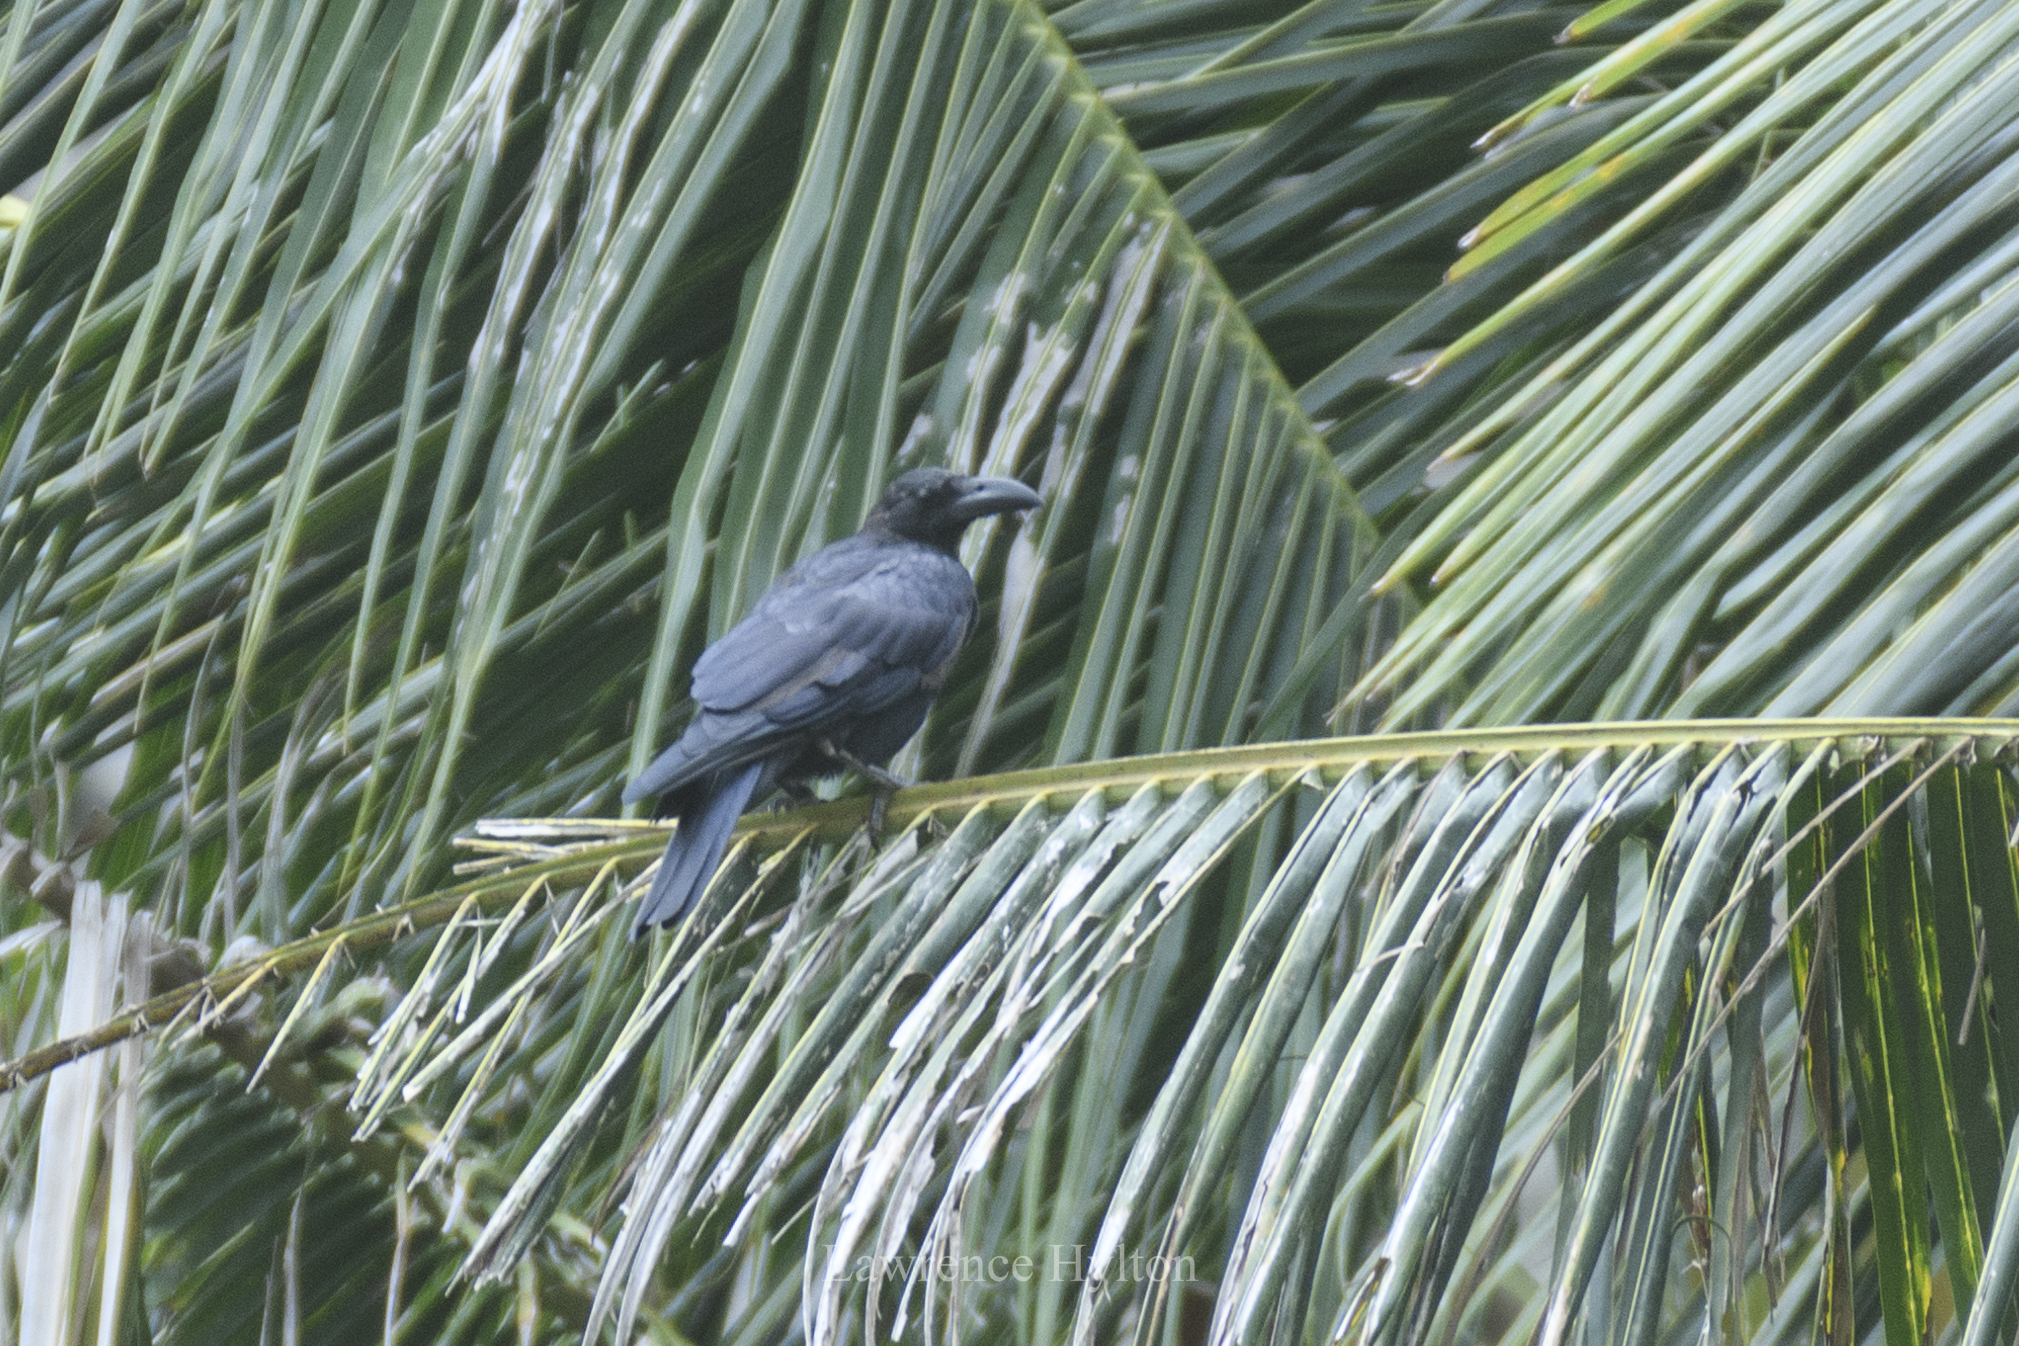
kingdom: Animalia
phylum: Chordata
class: Aves
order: Passeriformes
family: Corvidae
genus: Corvus
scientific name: Corvus macrorhynchos
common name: Large-billed crow
